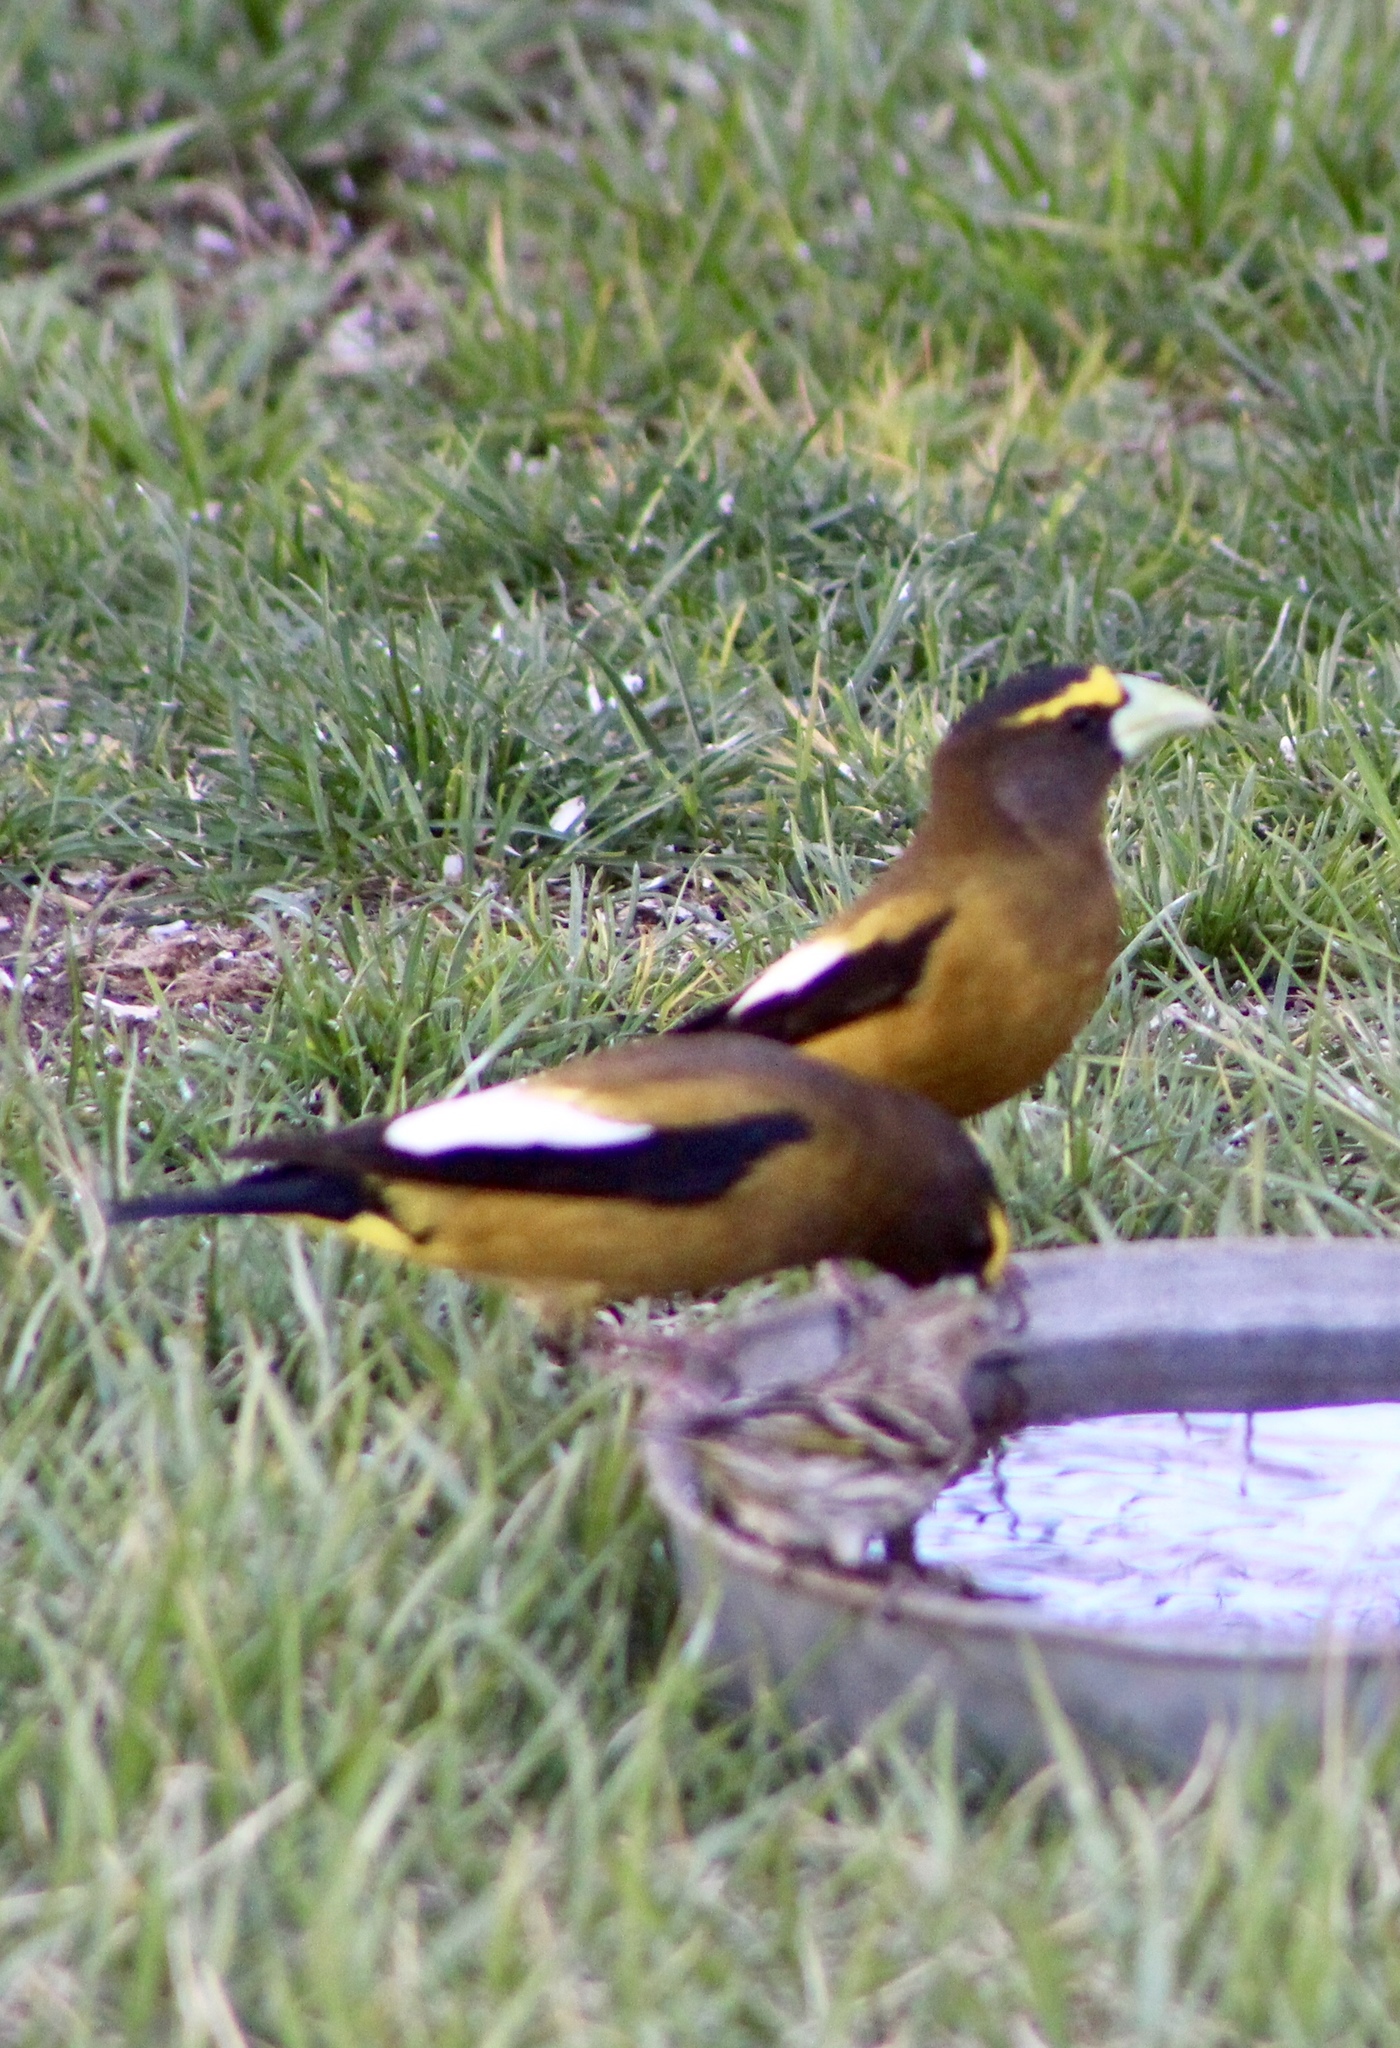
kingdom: Animalia
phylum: Chordata
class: Aves
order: Passeriformes
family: Fringillidae
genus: Hesperiphona
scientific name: Hesperiphona vespertina
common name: Evening grosbeak
